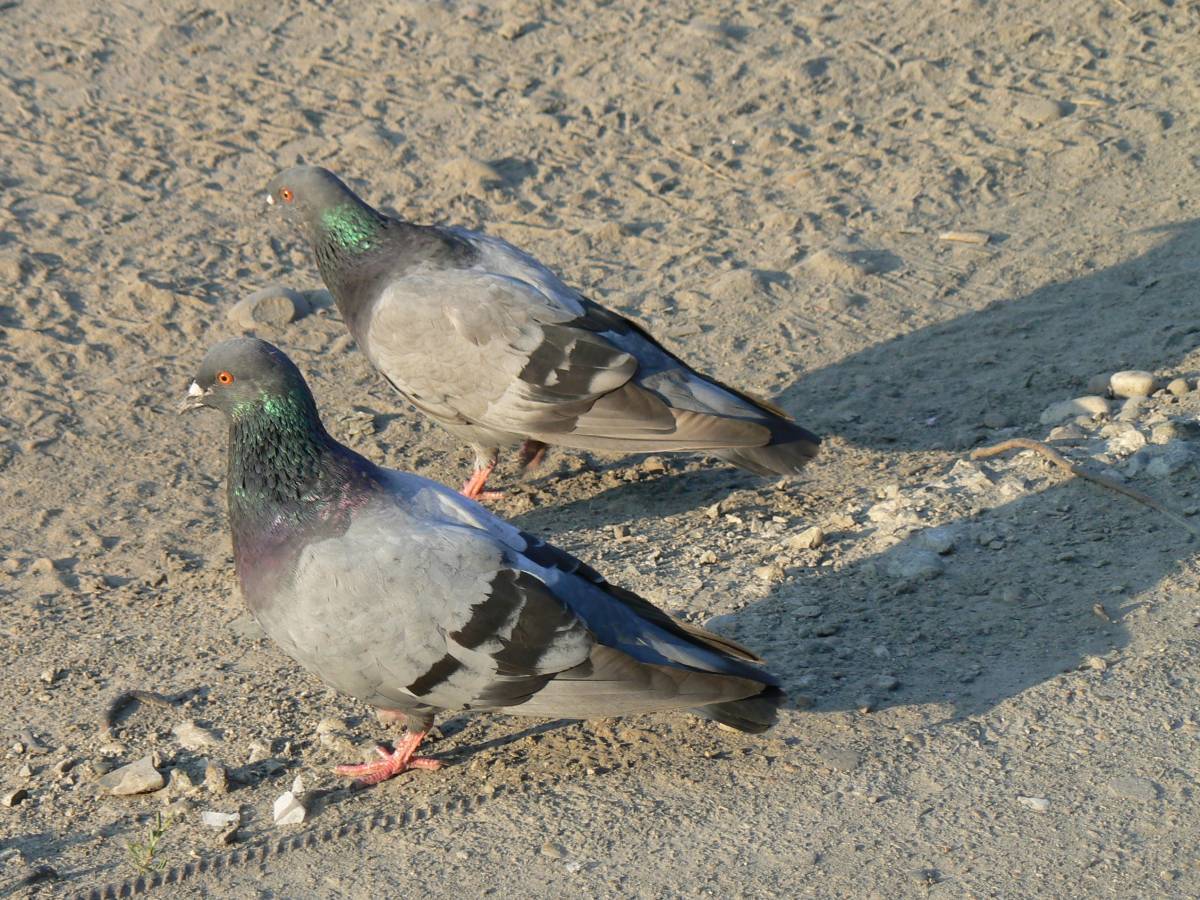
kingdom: Animalia
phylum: Chordata
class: Aves
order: Columbiformes
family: Columbidae
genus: Columba
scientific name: Columba livia
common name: Rock pigeon
